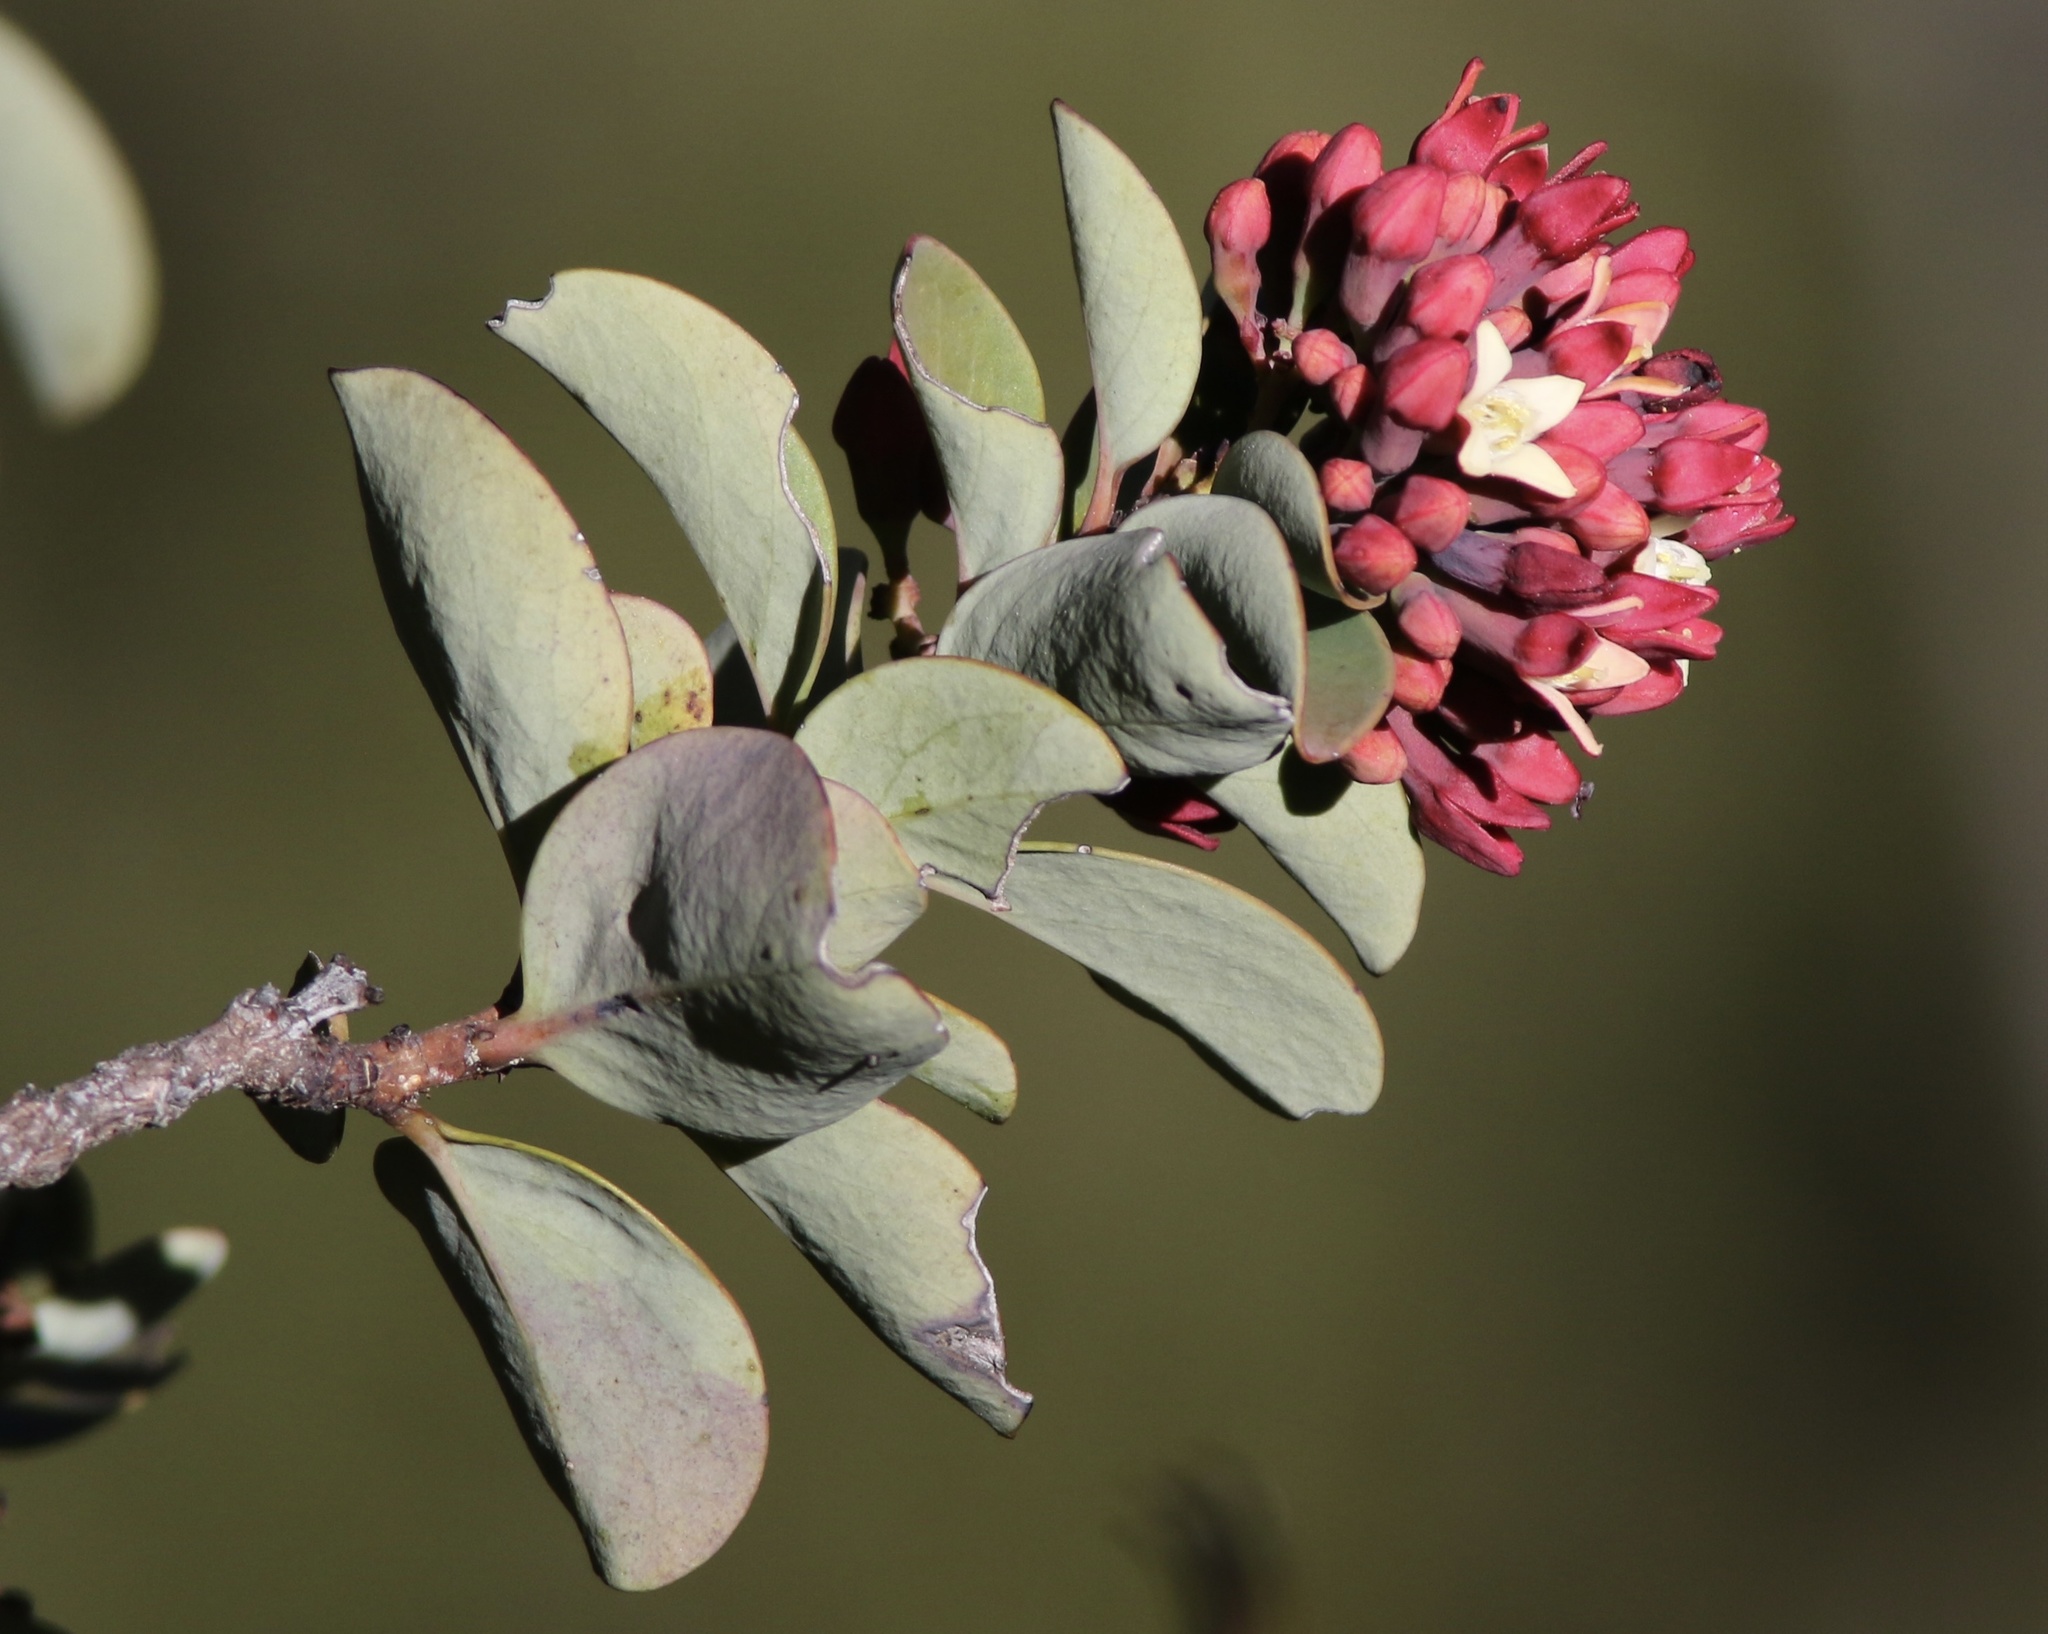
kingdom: Plantae
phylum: Tracheophyta
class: Magnoliopsida
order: Santalales
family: Santalaceae
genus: Santalum
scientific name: Santalum haleakalae
